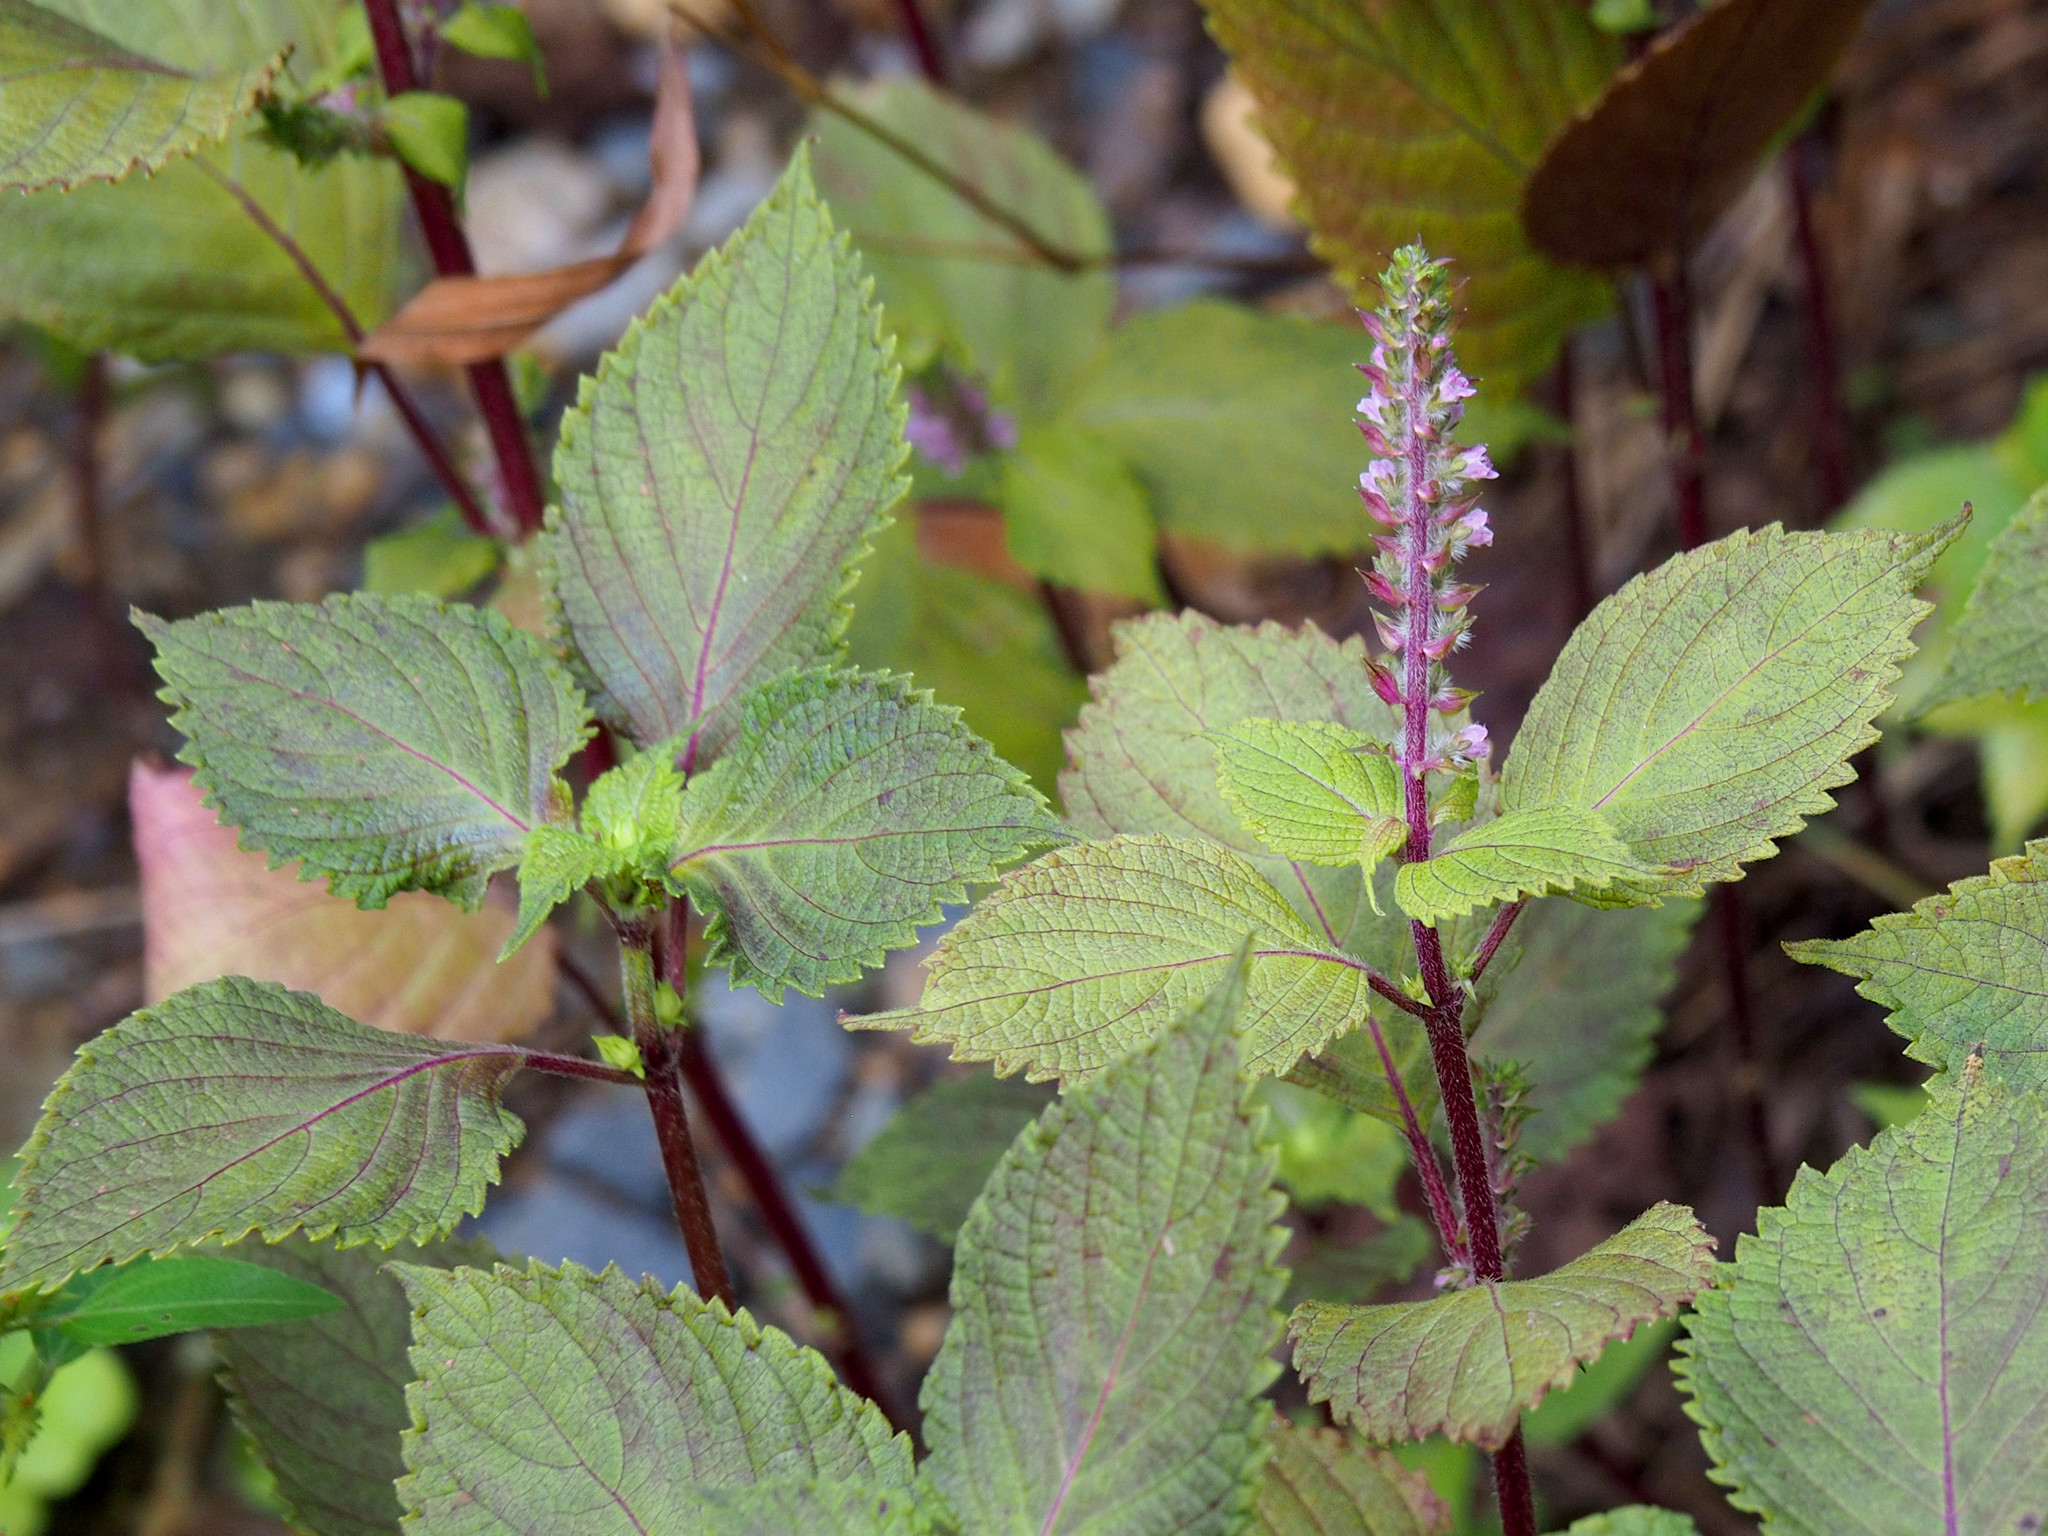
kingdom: Plantae
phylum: Tracheophyta
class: Magnoliopsida
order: Lamiales
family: Lamiaceae
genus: Perilla
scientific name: Perilla frutescens
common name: Perilla
